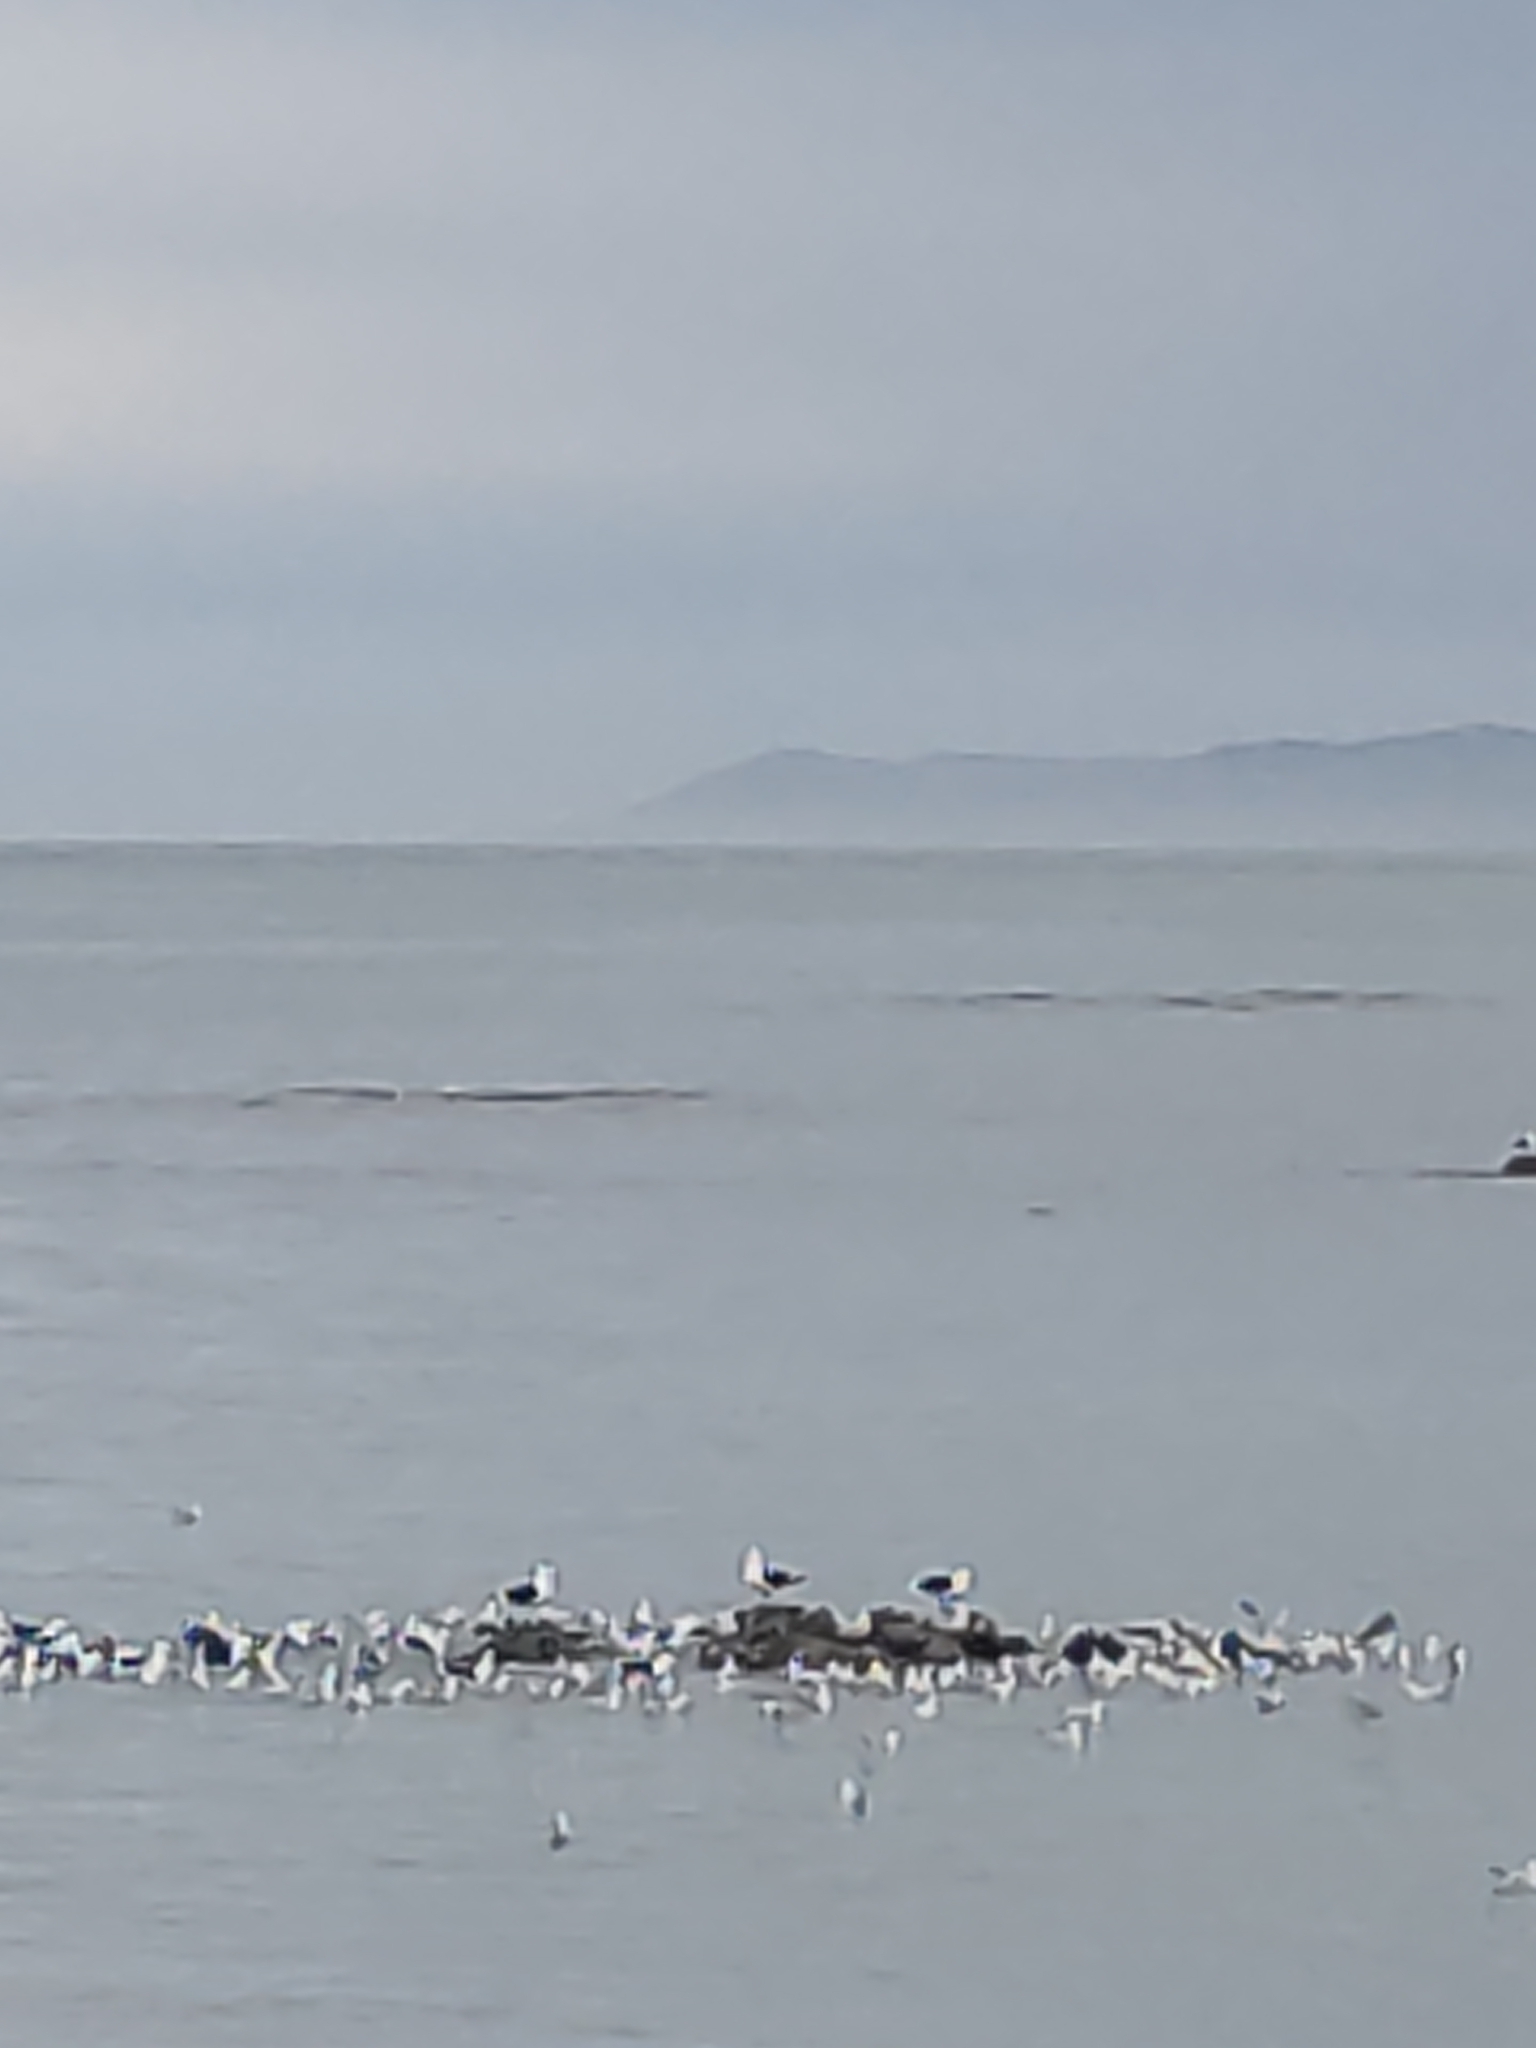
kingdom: Animalia
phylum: Chordata
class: Aves
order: Charadriiformes
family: Laridae
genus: Larus
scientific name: Larus dominicanus
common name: Kelp gull
